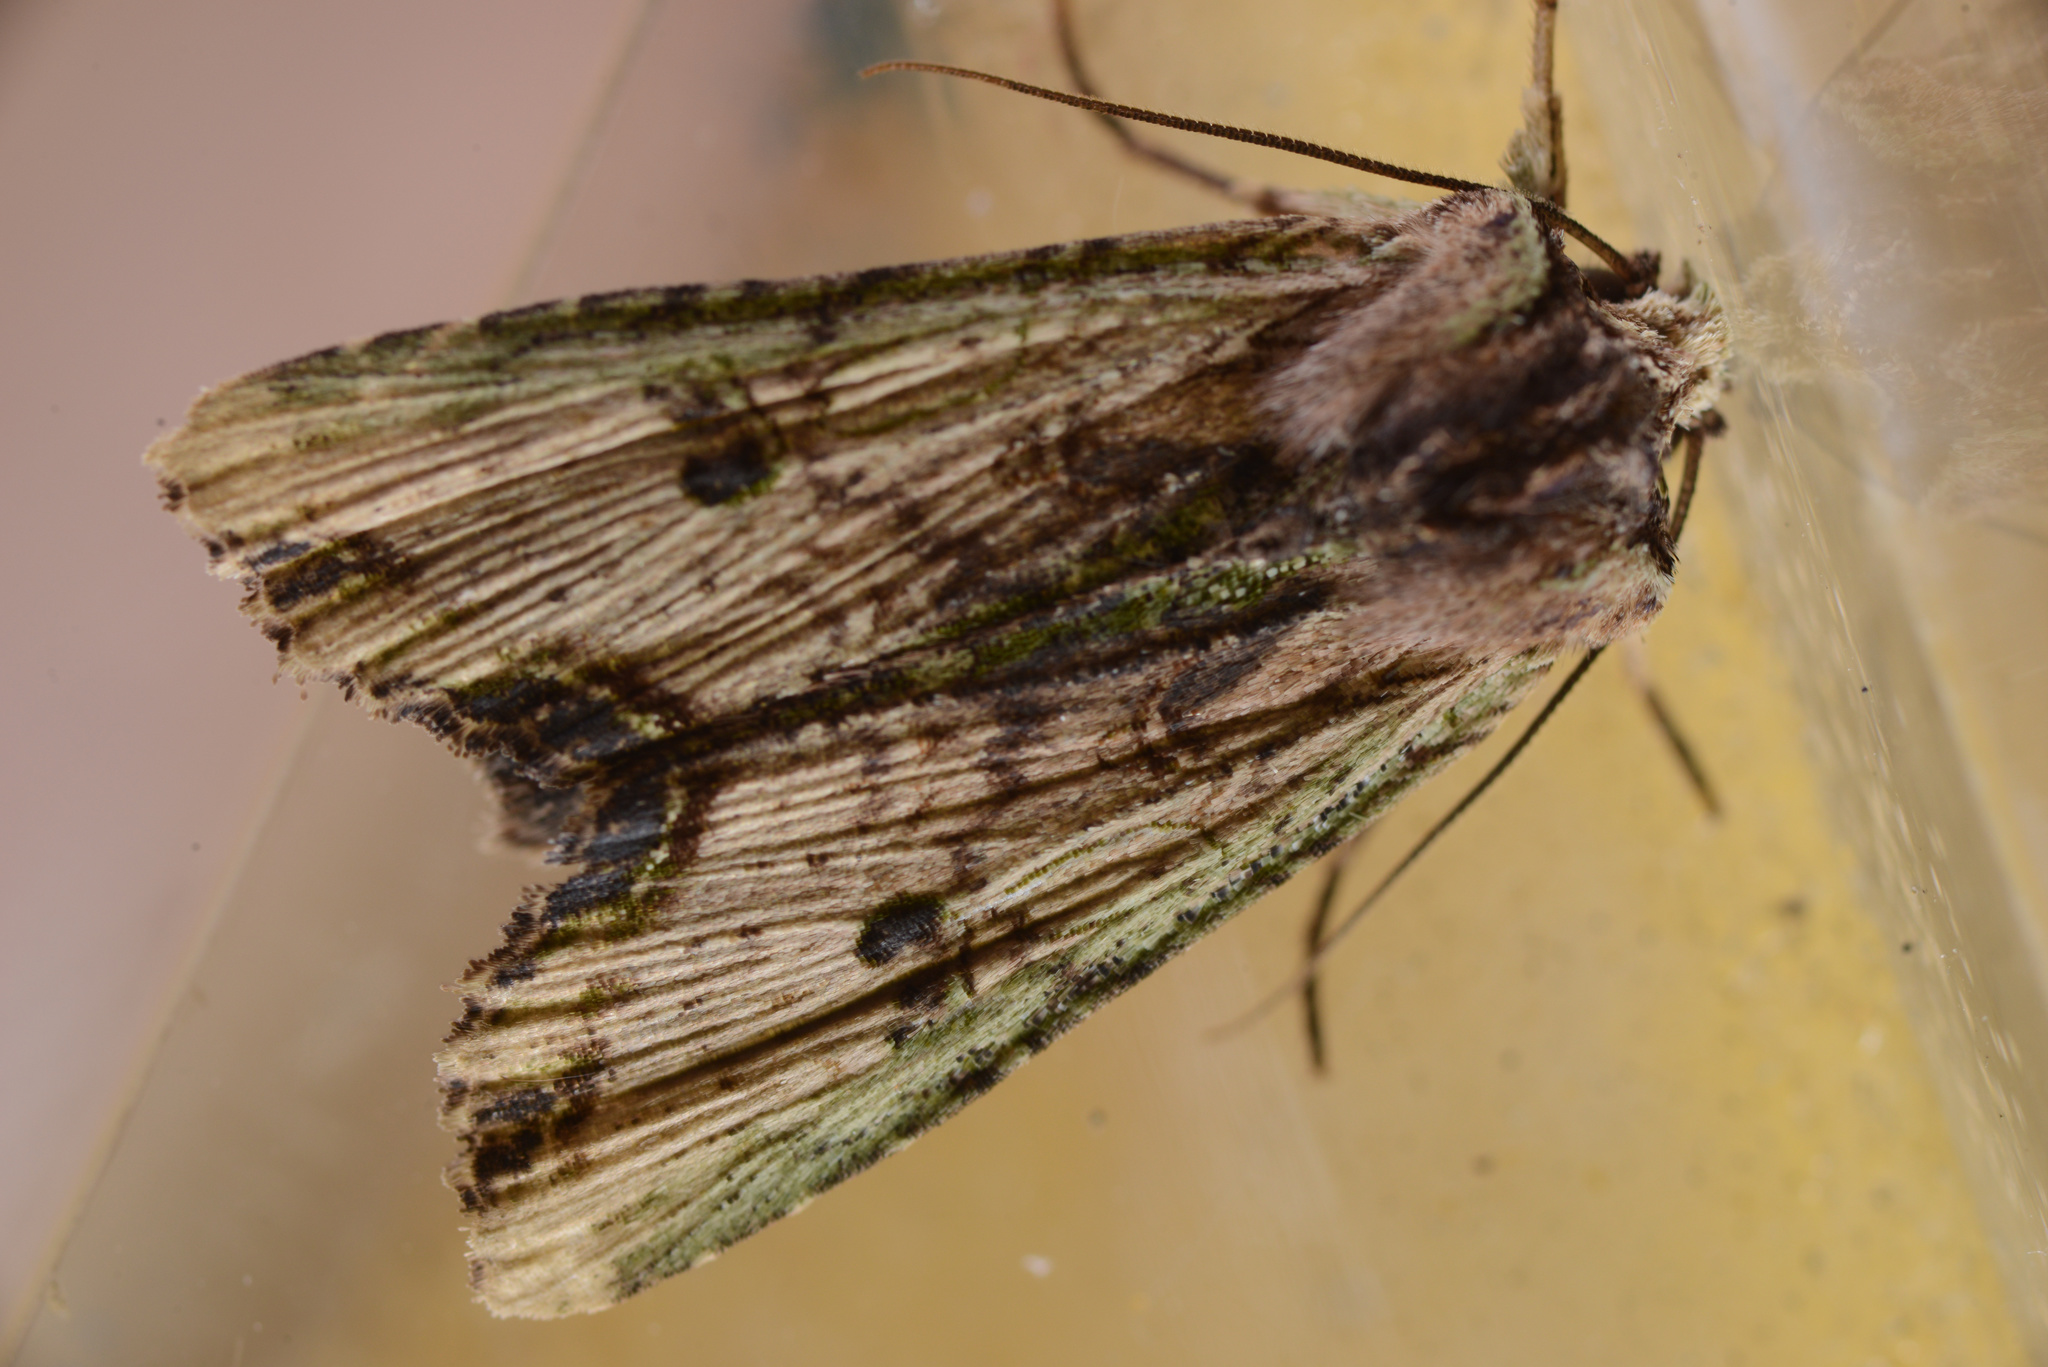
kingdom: Animalia
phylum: Arthropoda
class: Insecta
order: Lepidoptera
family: Noctuidae
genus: Meterana
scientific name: Meterana coeleno
